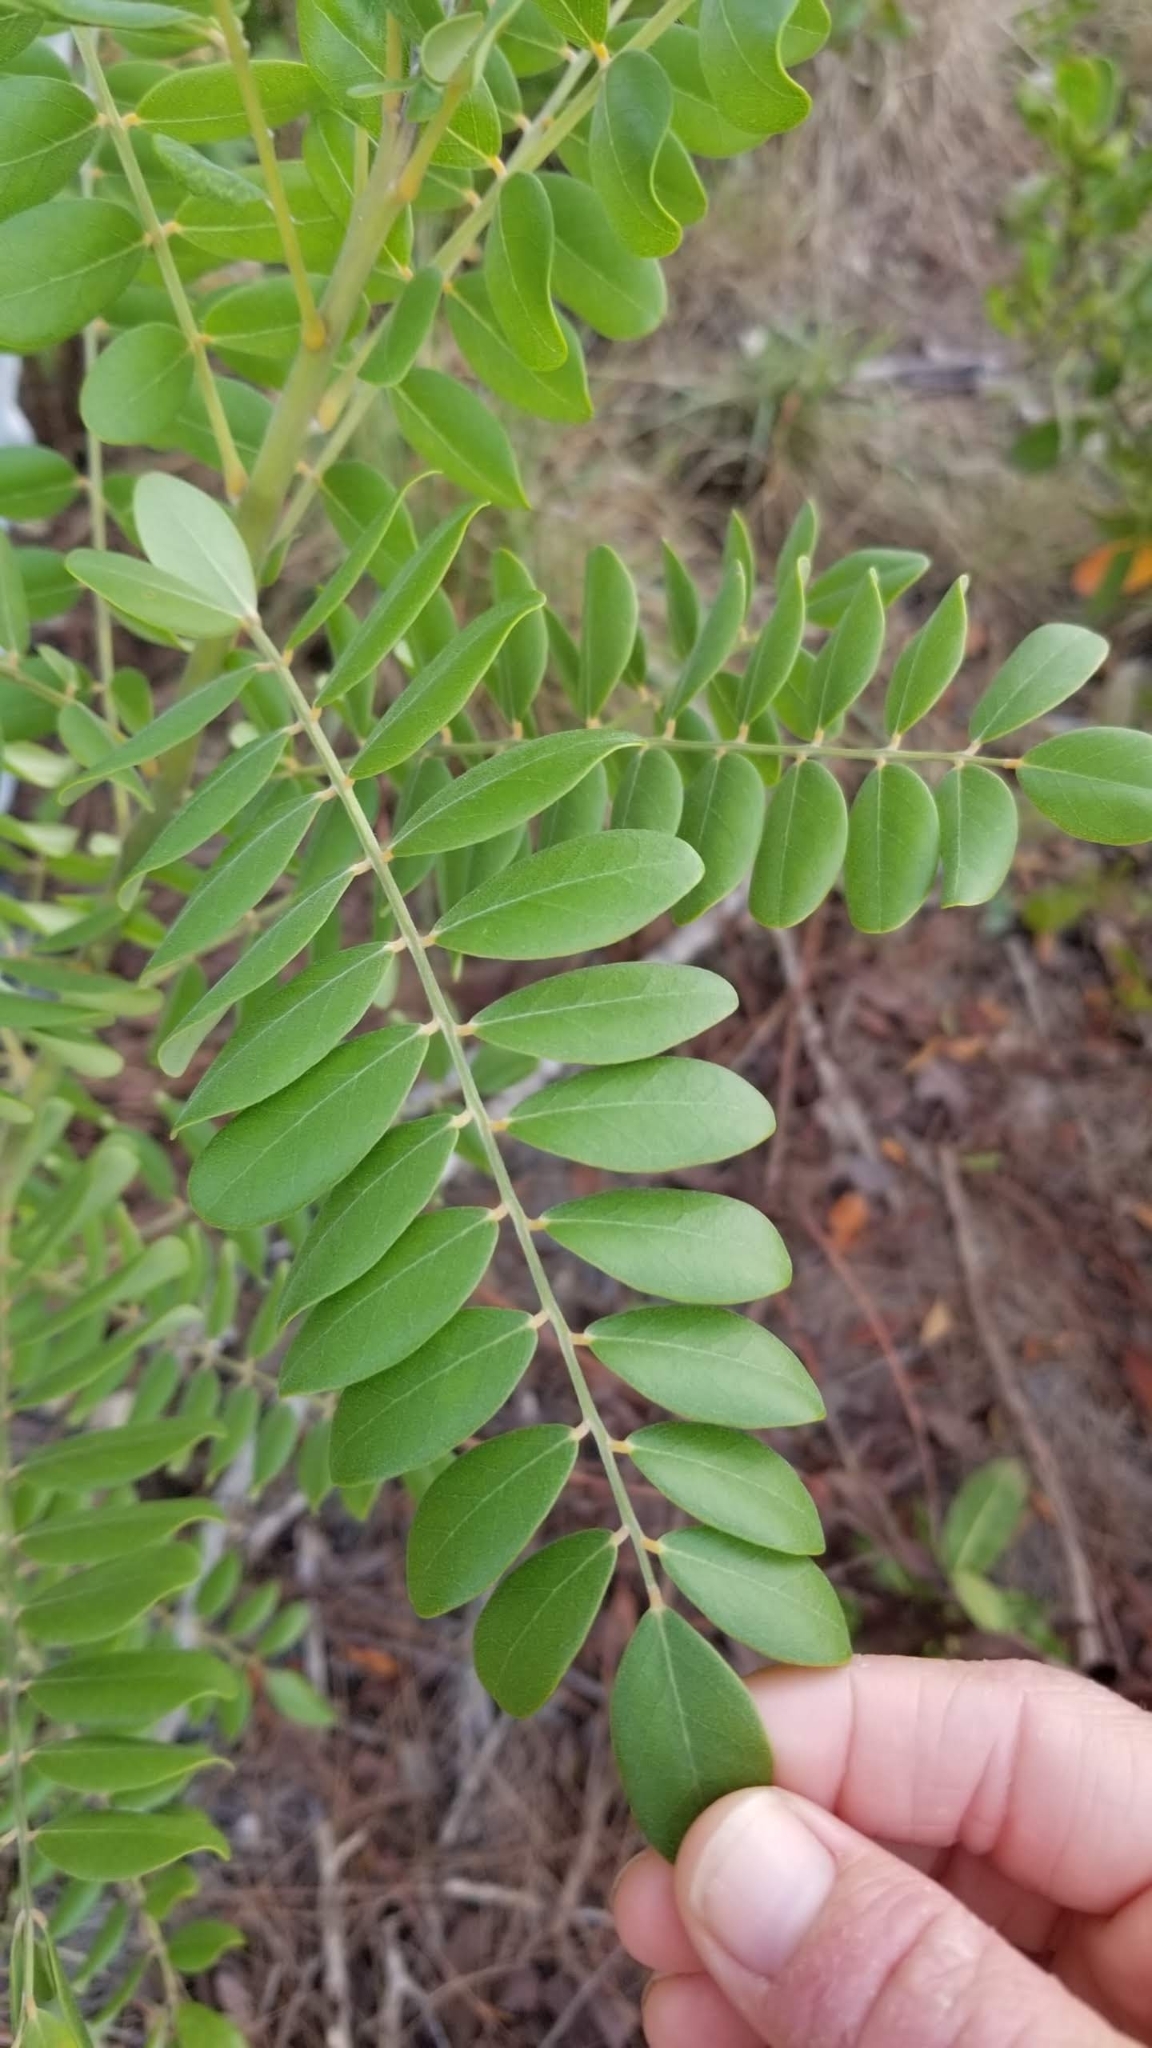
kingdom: Plantae
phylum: Tracheophyta
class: Magnoliopsida
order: Fabales
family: Fabaceae
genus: Sophora
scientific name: Sophora tomentosa
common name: Yellow necklacepod
